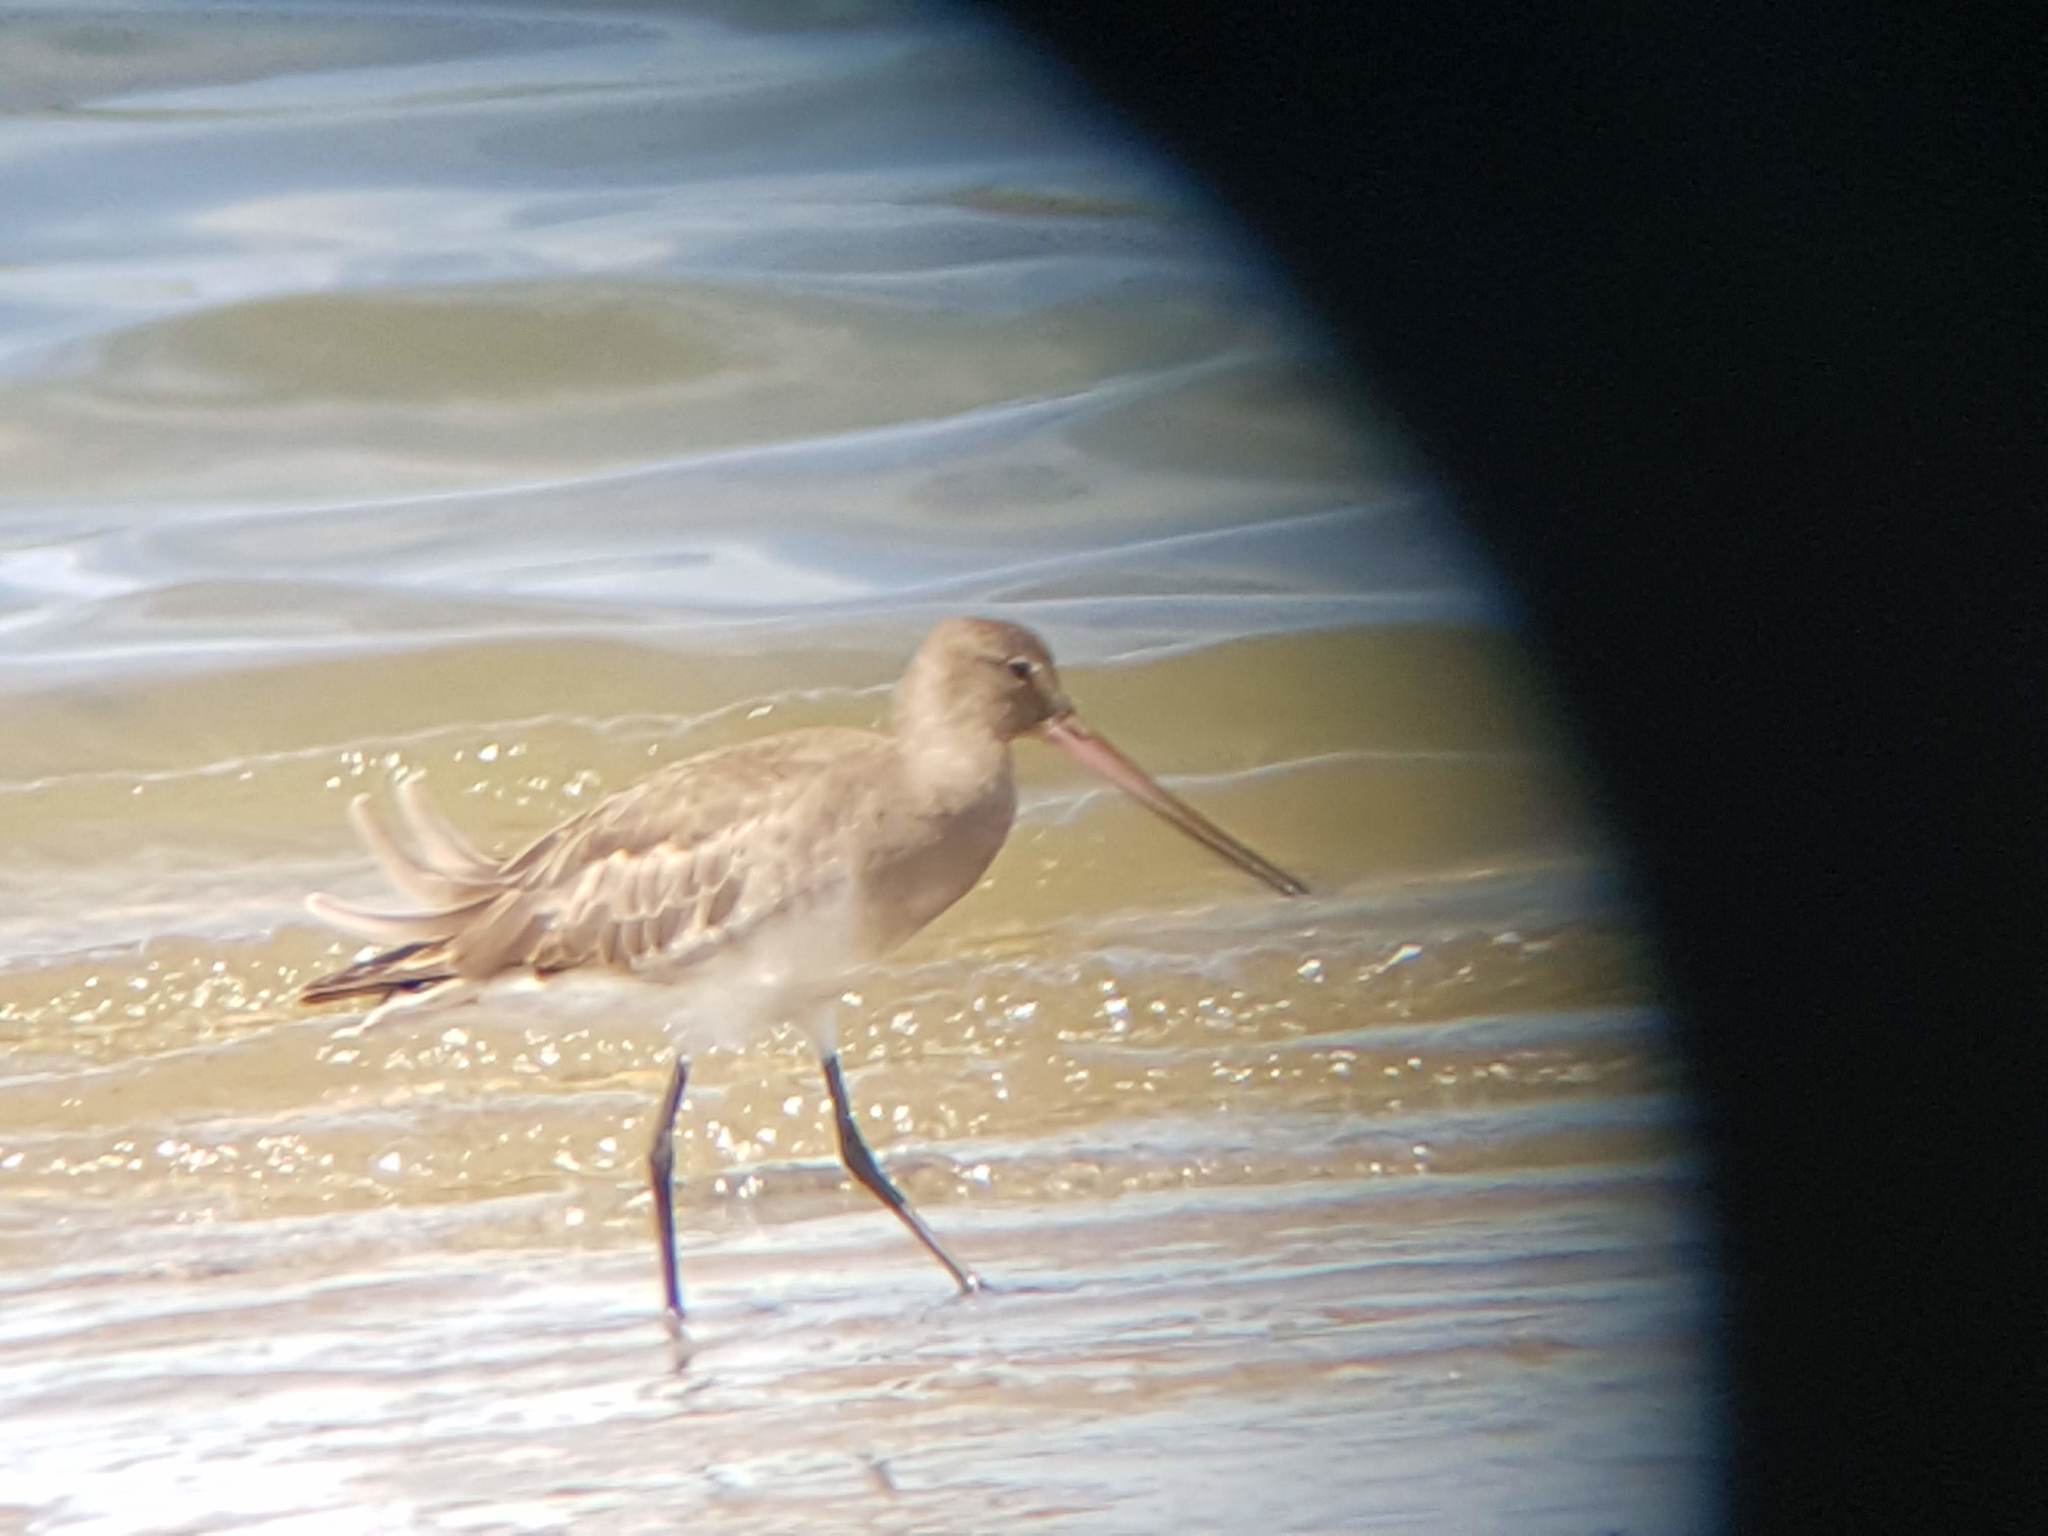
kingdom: Animalia
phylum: Chordata
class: Aves
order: Charadriiformes
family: Scolopacidae
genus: Limosa
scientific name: Limosa haemastica
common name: Hudsonian godwit
